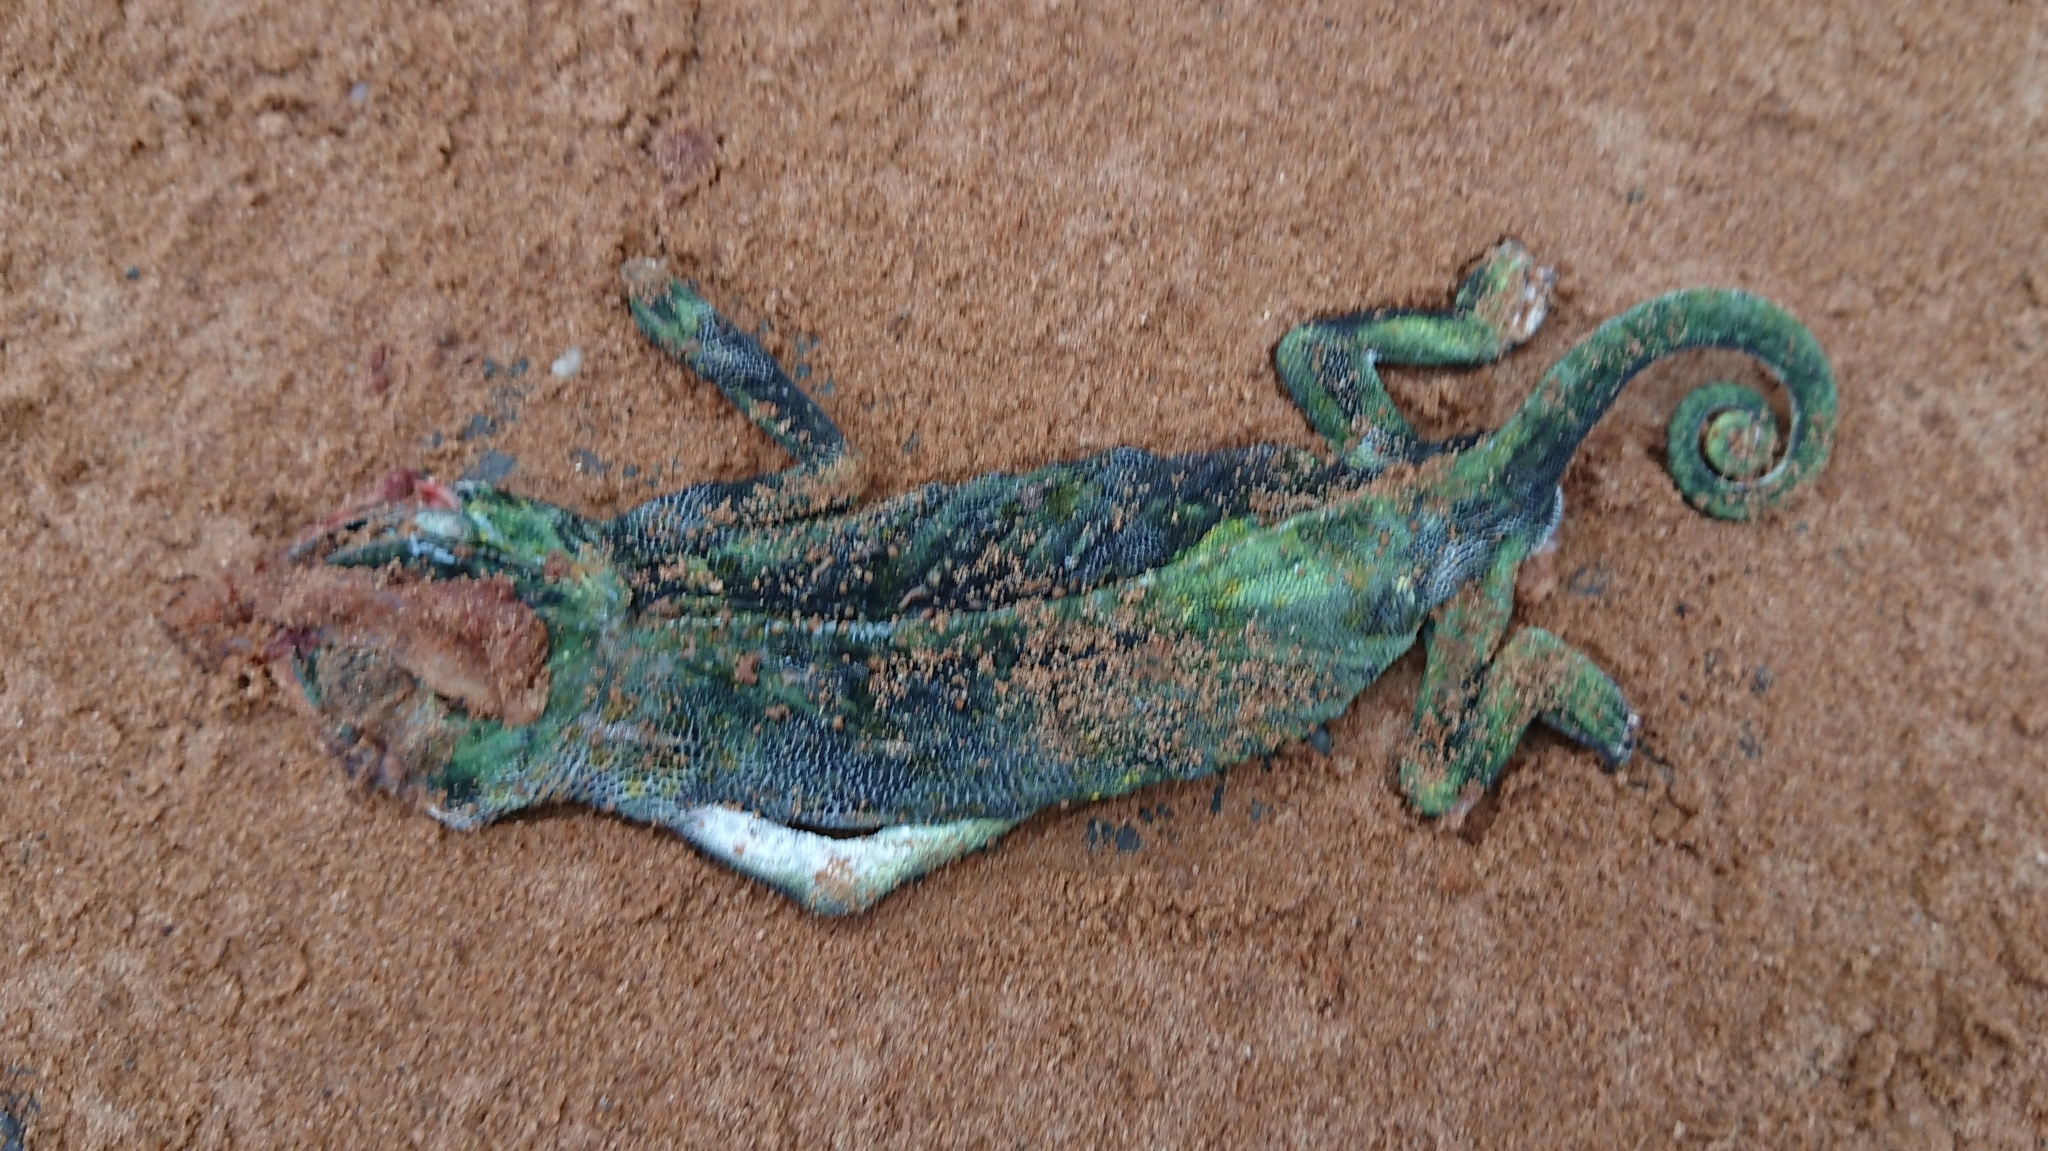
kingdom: Animalia
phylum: Chordata
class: Squamata
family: Chamaeleonidae
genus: Chamaeleo
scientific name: Chamaeleo dilepis
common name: Flapneck chameleon
